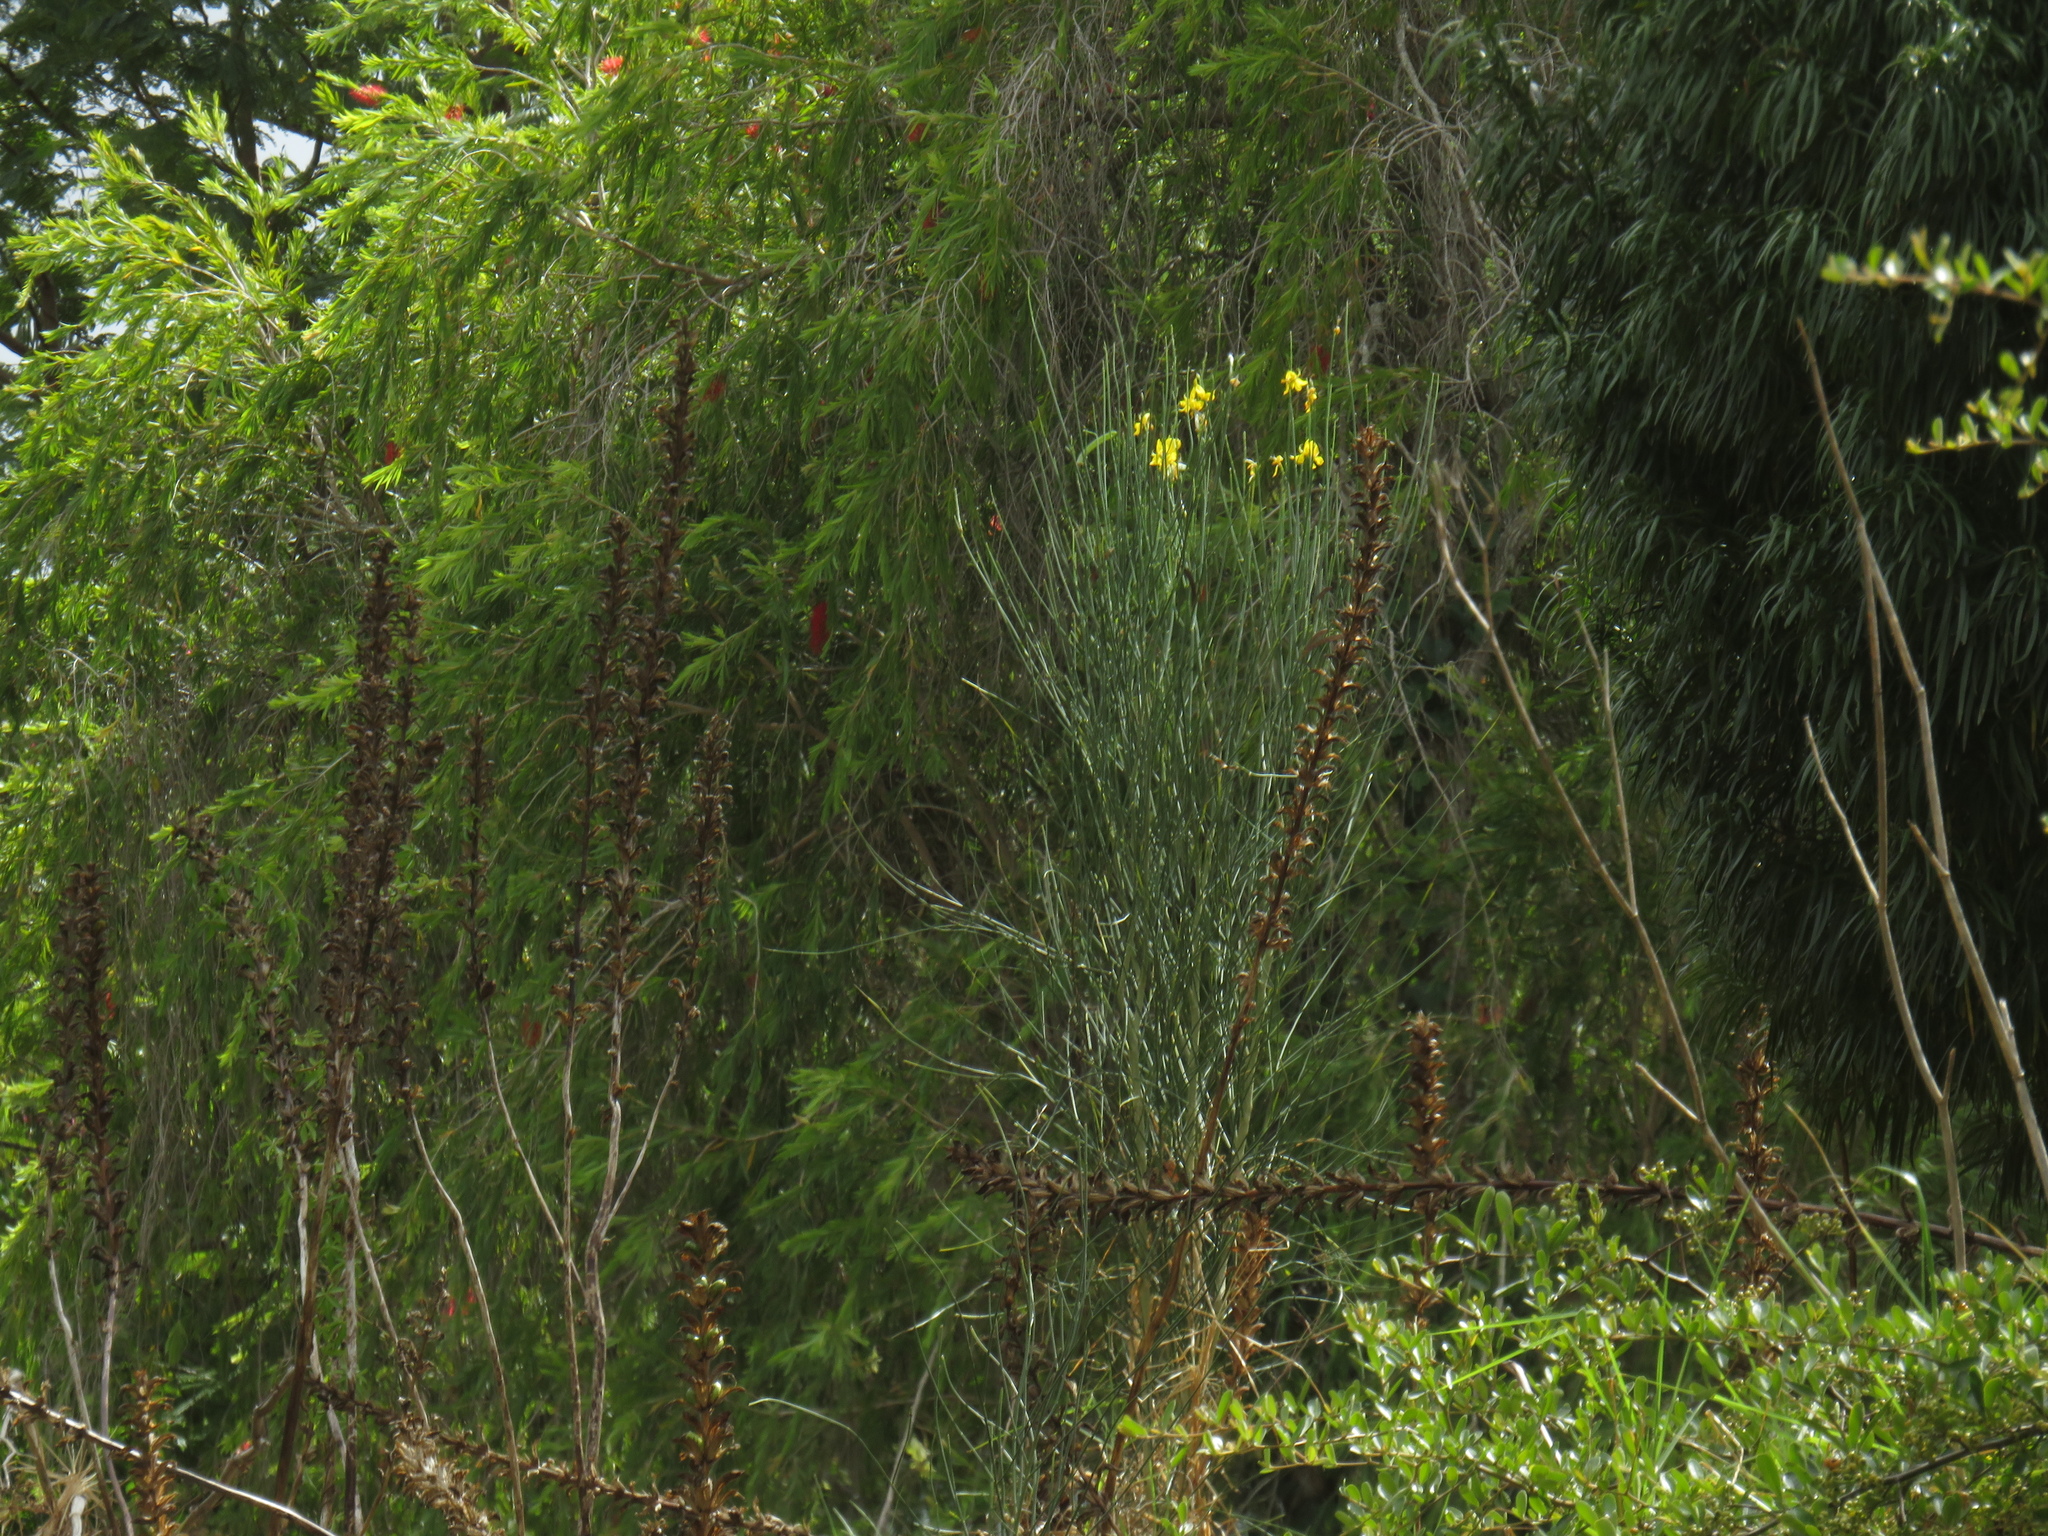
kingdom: Plantae
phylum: Tracheophyta
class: Magnoliopsida
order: Fabales
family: Fabaceae
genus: Spartium
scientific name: Spartium junceum
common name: Spanish broom
